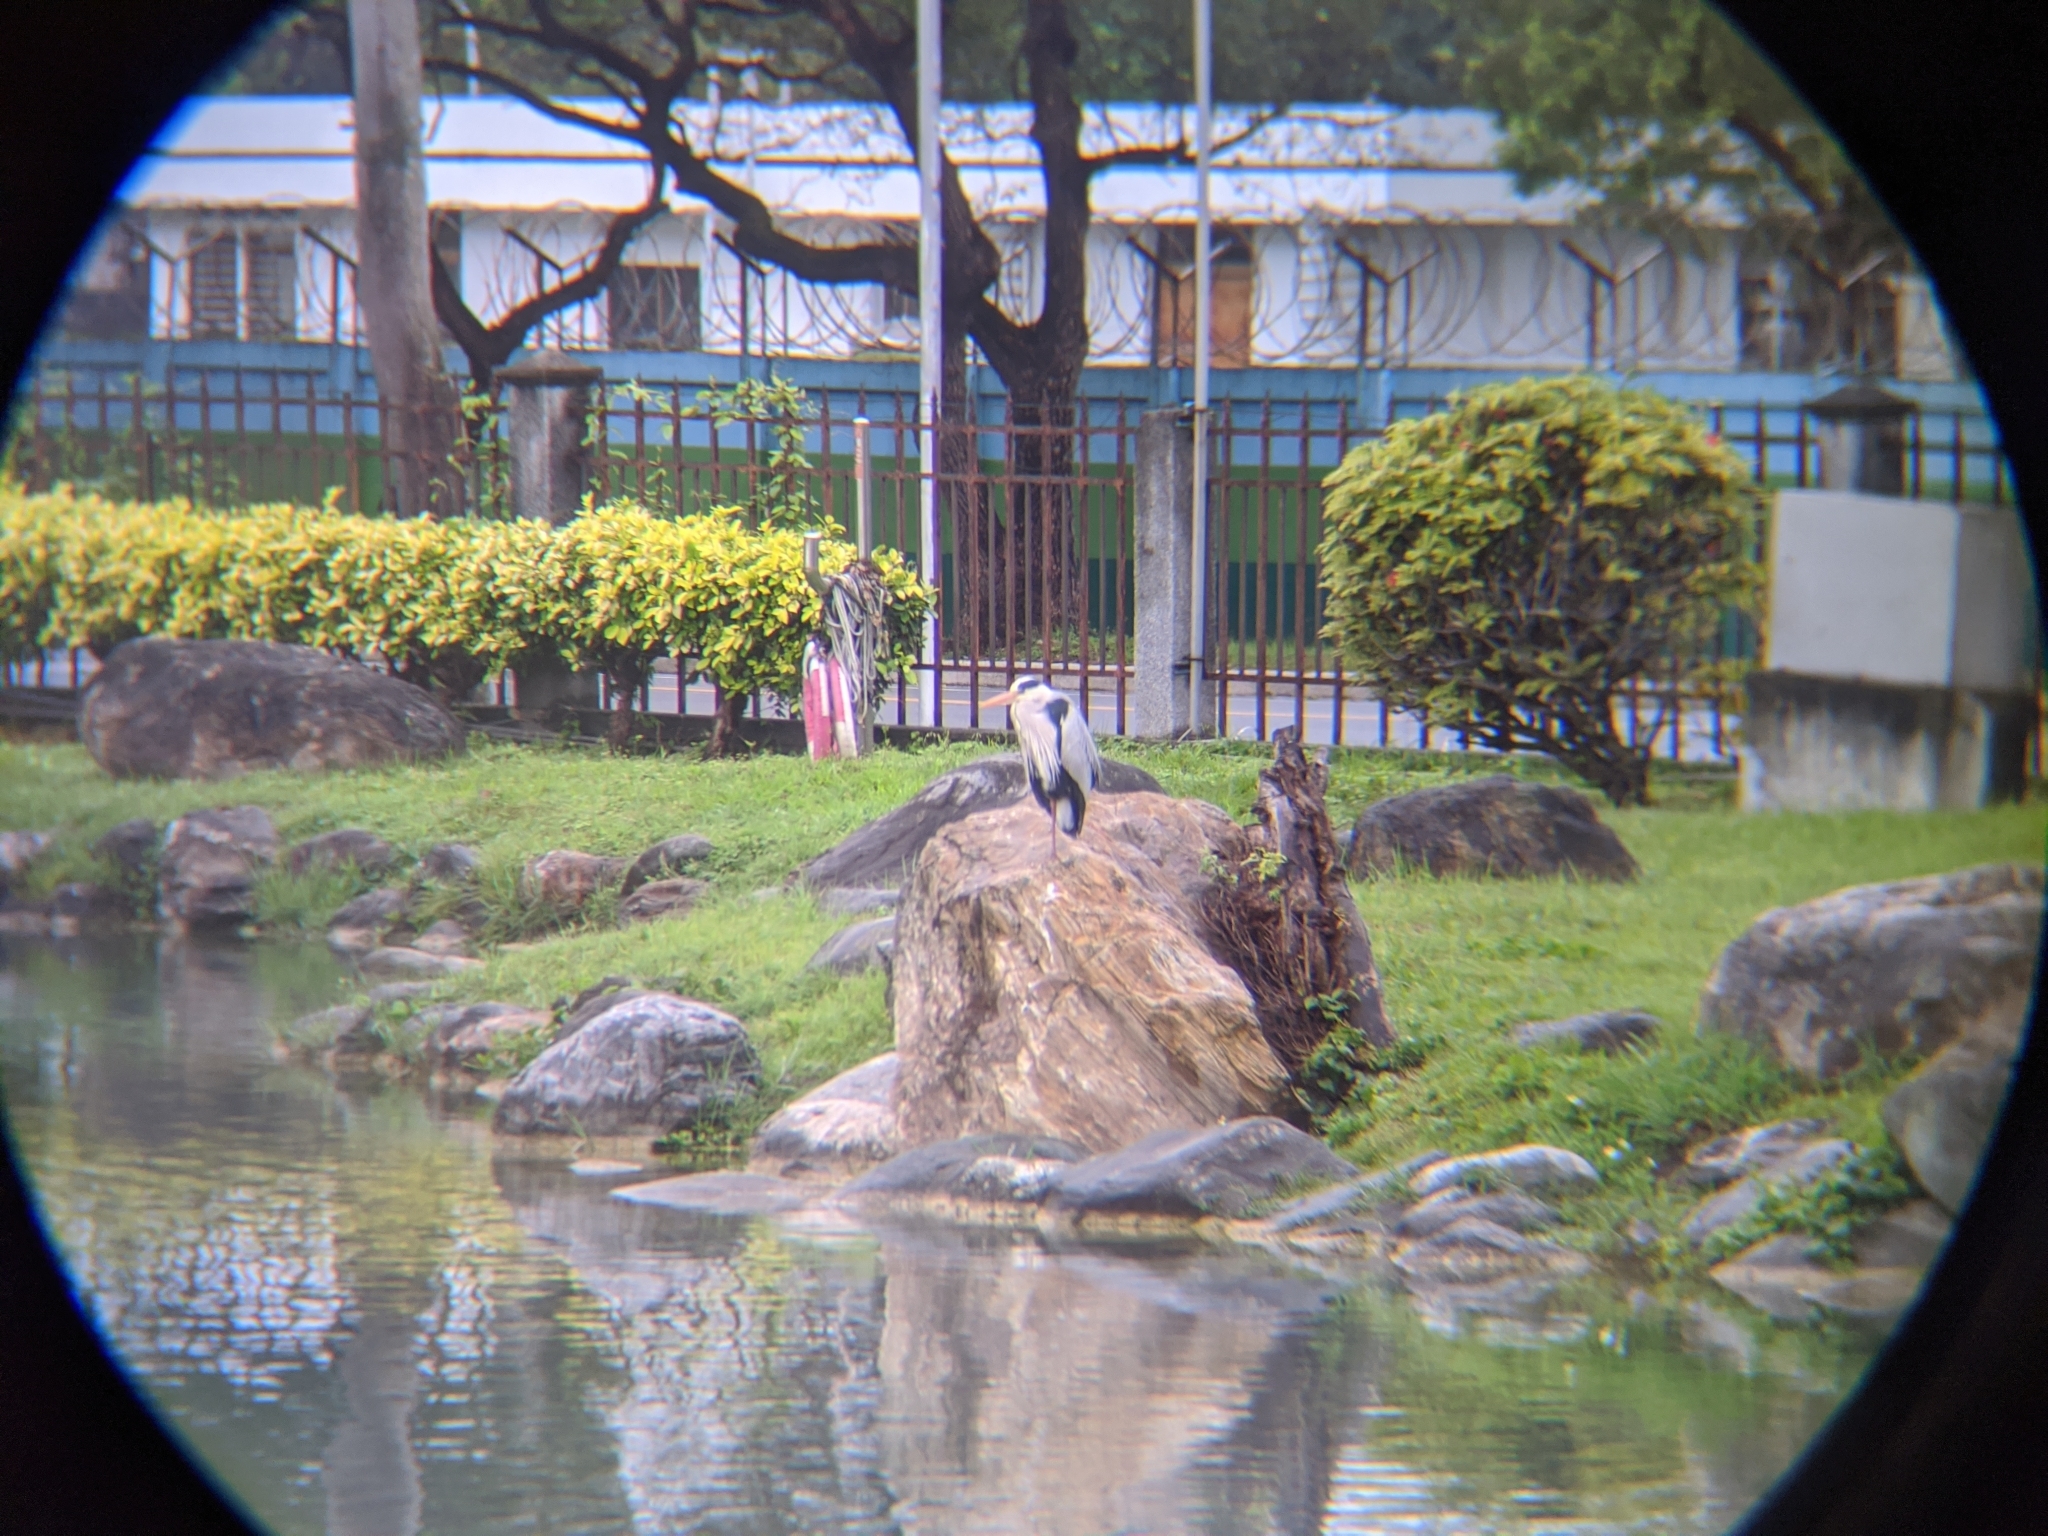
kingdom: Animalia
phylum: Chordata
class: Aves
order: Pelecaniformes
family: Ardeidae
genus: Ardea
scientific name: Ardea cinerea
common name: Grey heron
